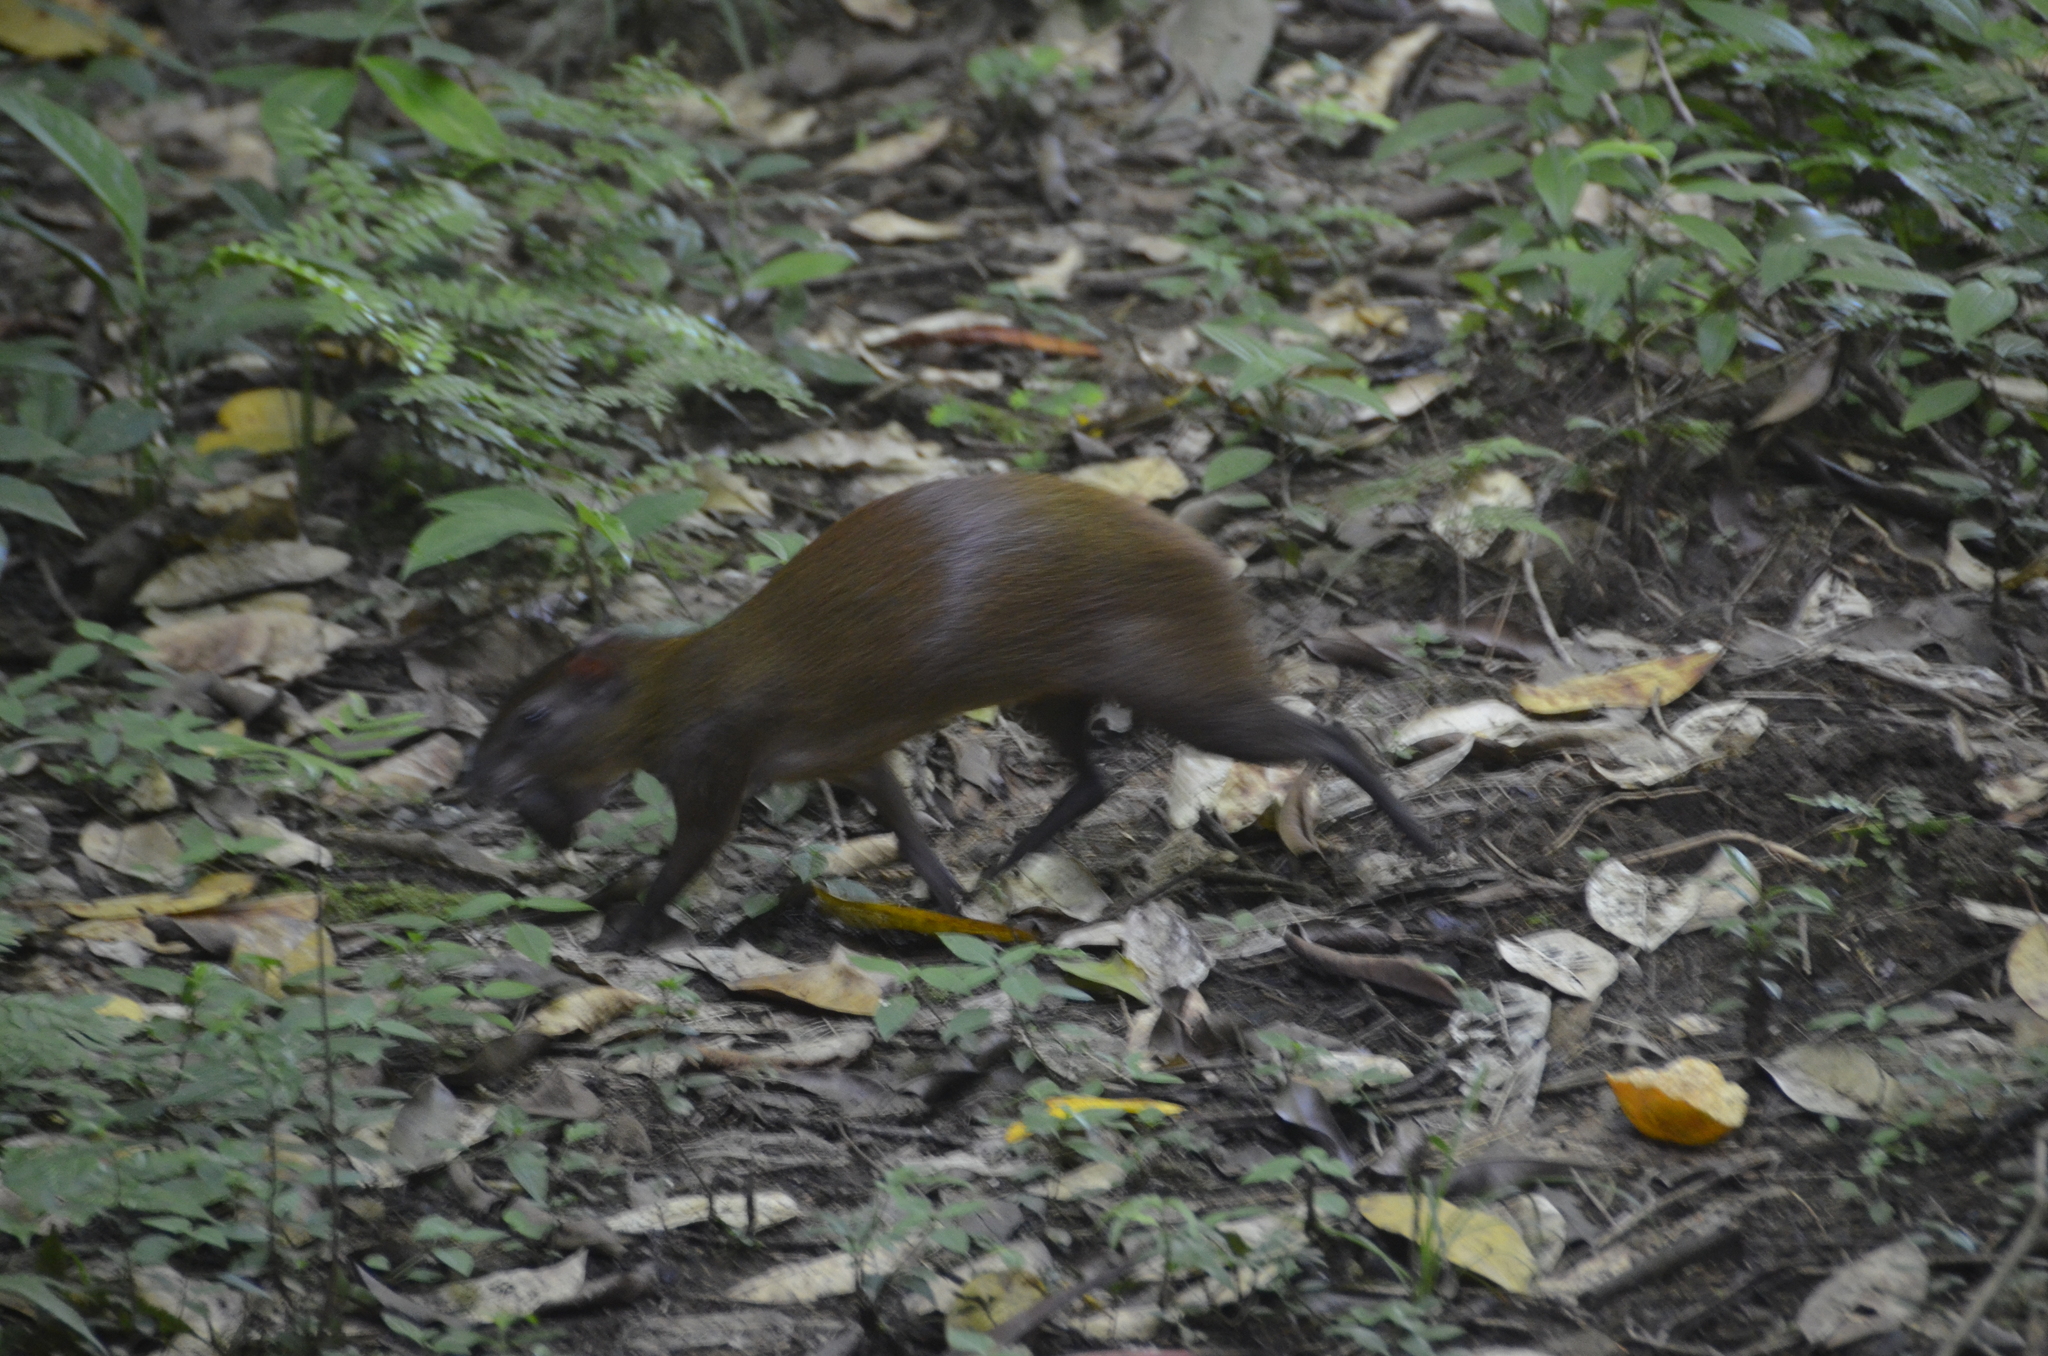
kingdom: Animalia
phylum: Chordata
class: Mammalia
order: Rodentia
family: Dasyproctidae
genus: Dasyprocta
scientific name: Dasyprocta punctata
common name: Central american agouti
